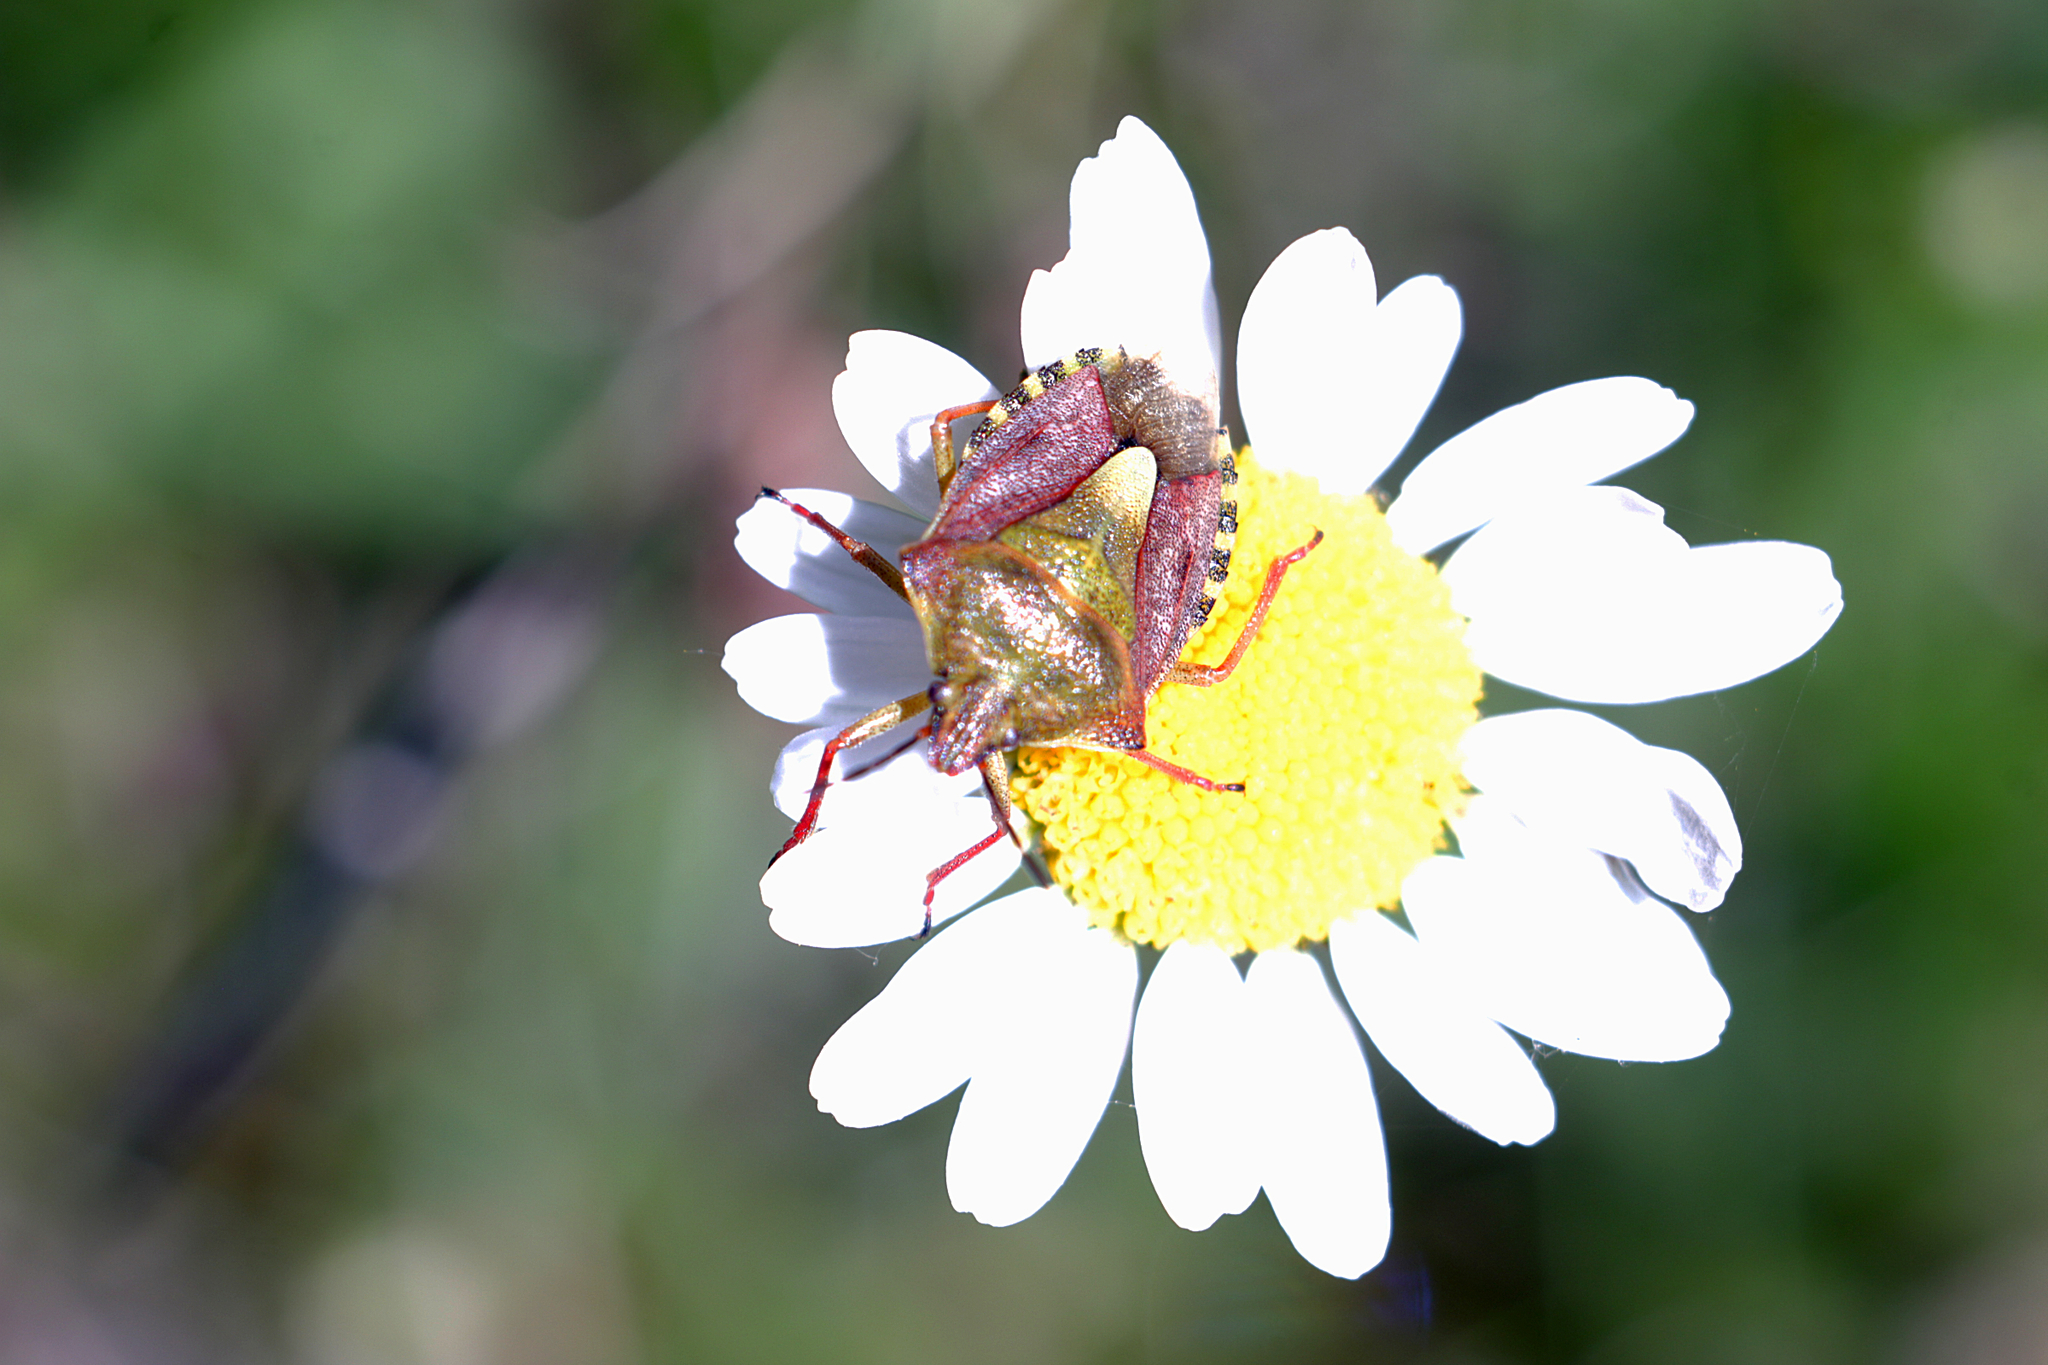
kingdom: Animalia
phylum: Arthropoda
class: Insecta
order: Hemiptera
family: Pentatomidae
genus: Carpocoris
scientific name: Carpocoris purpureipennis
